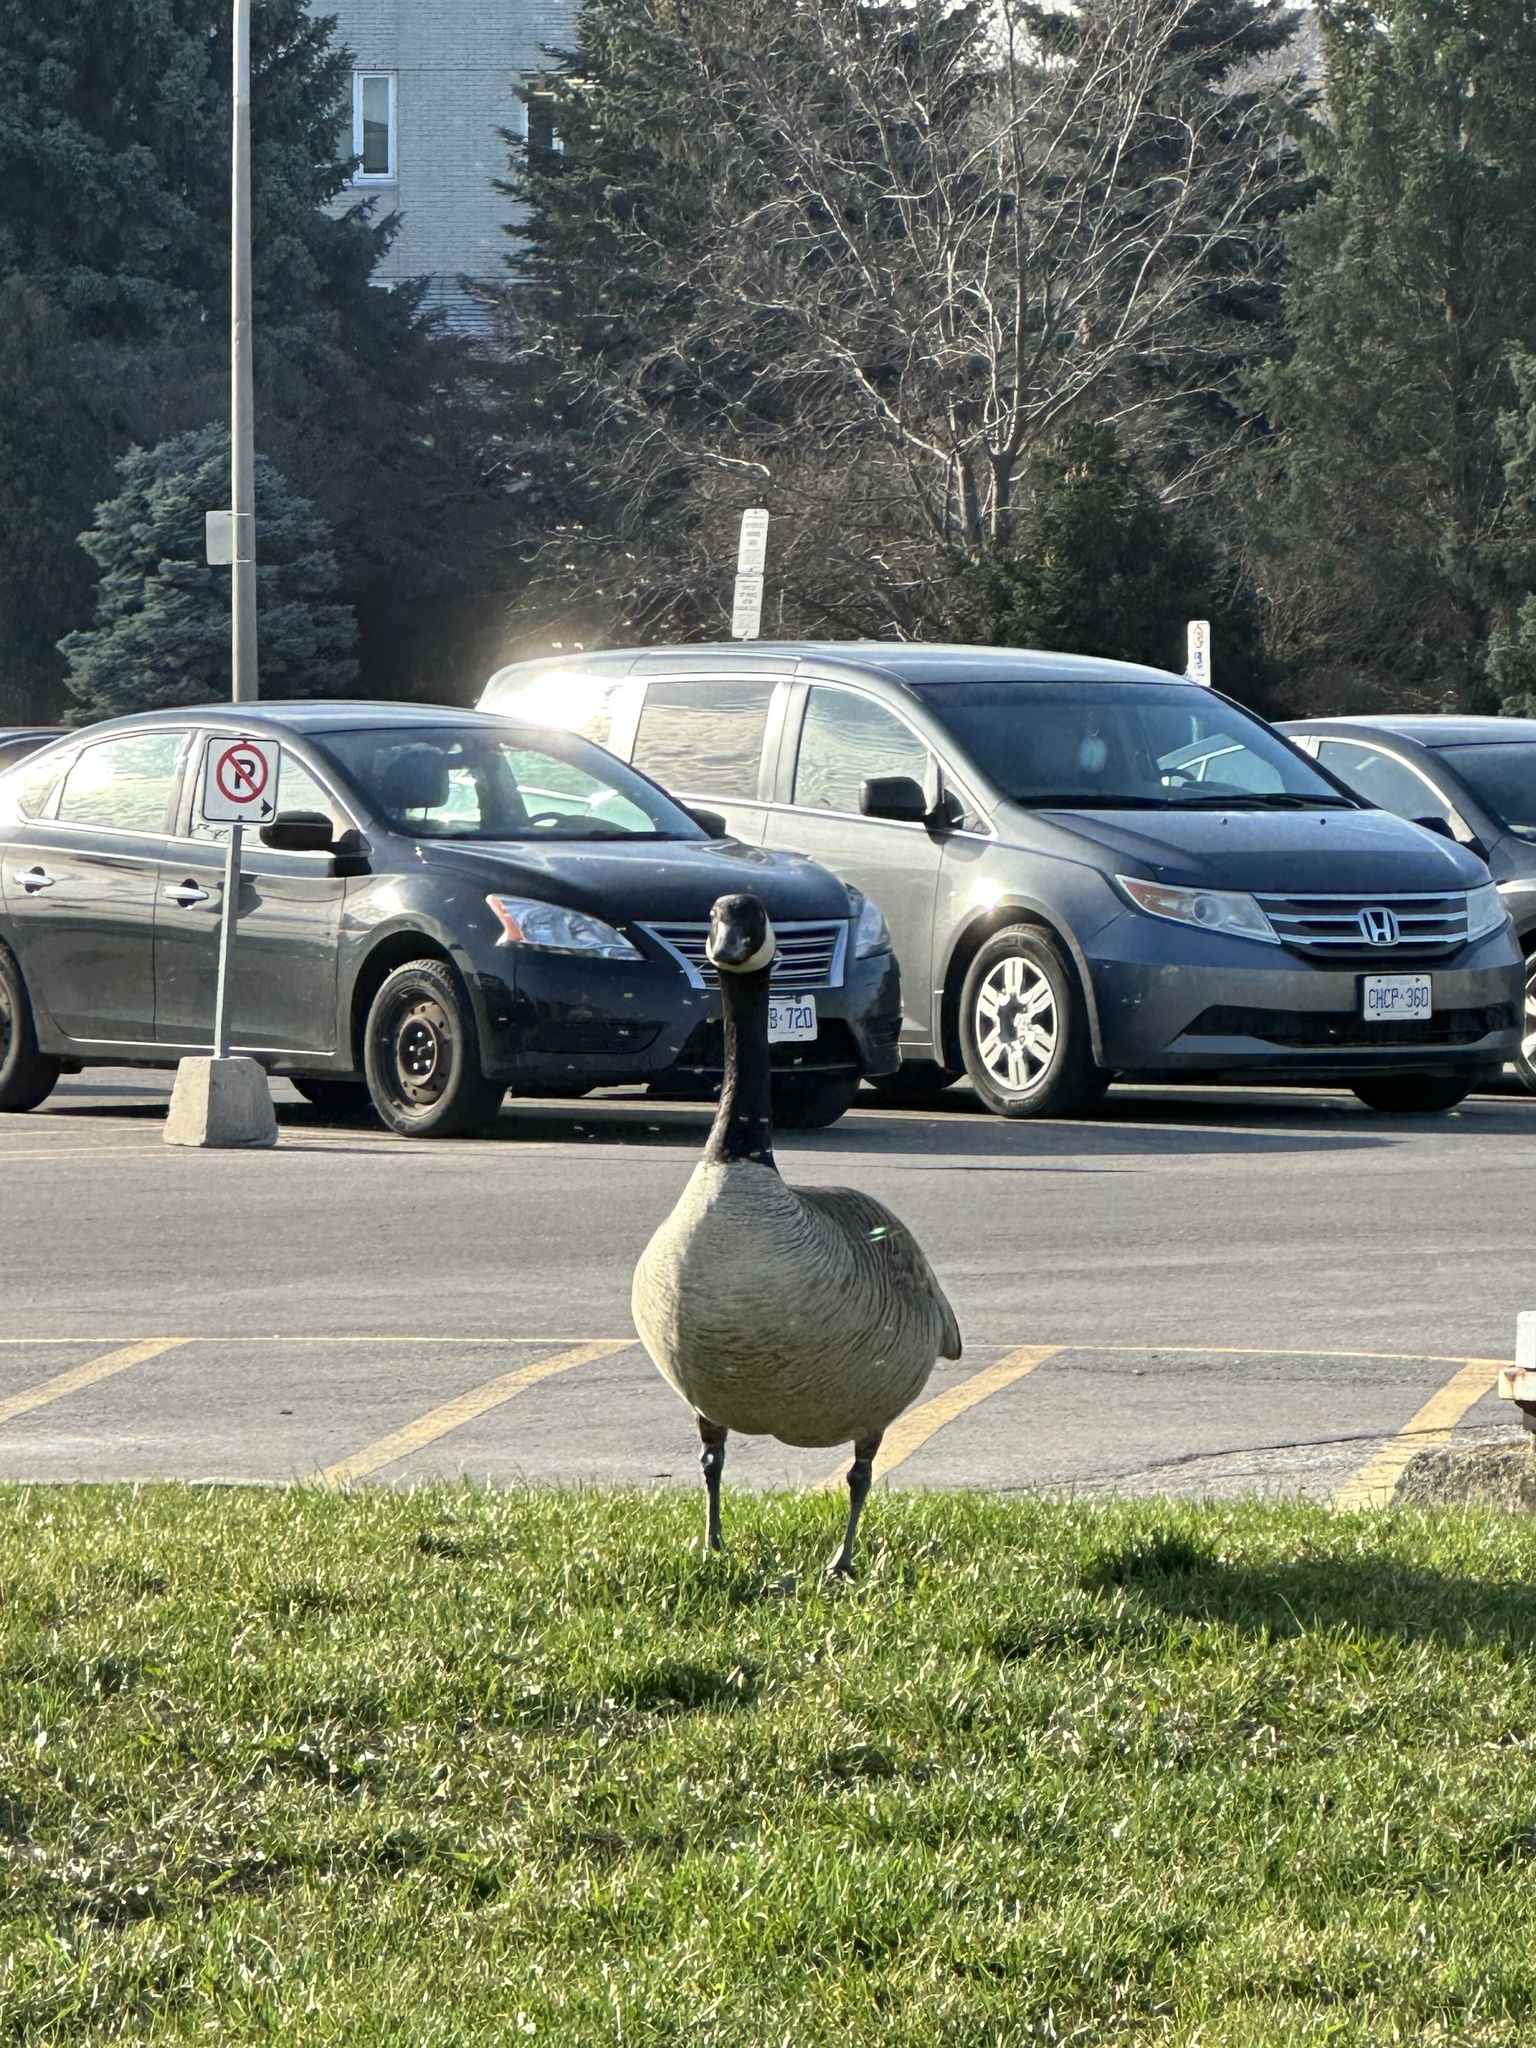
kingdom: Animalia
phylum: Chordata
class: Aves
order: Anseriformes
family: Anatidae
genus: Branta
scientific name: Branta canadensis
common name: Canada goose
